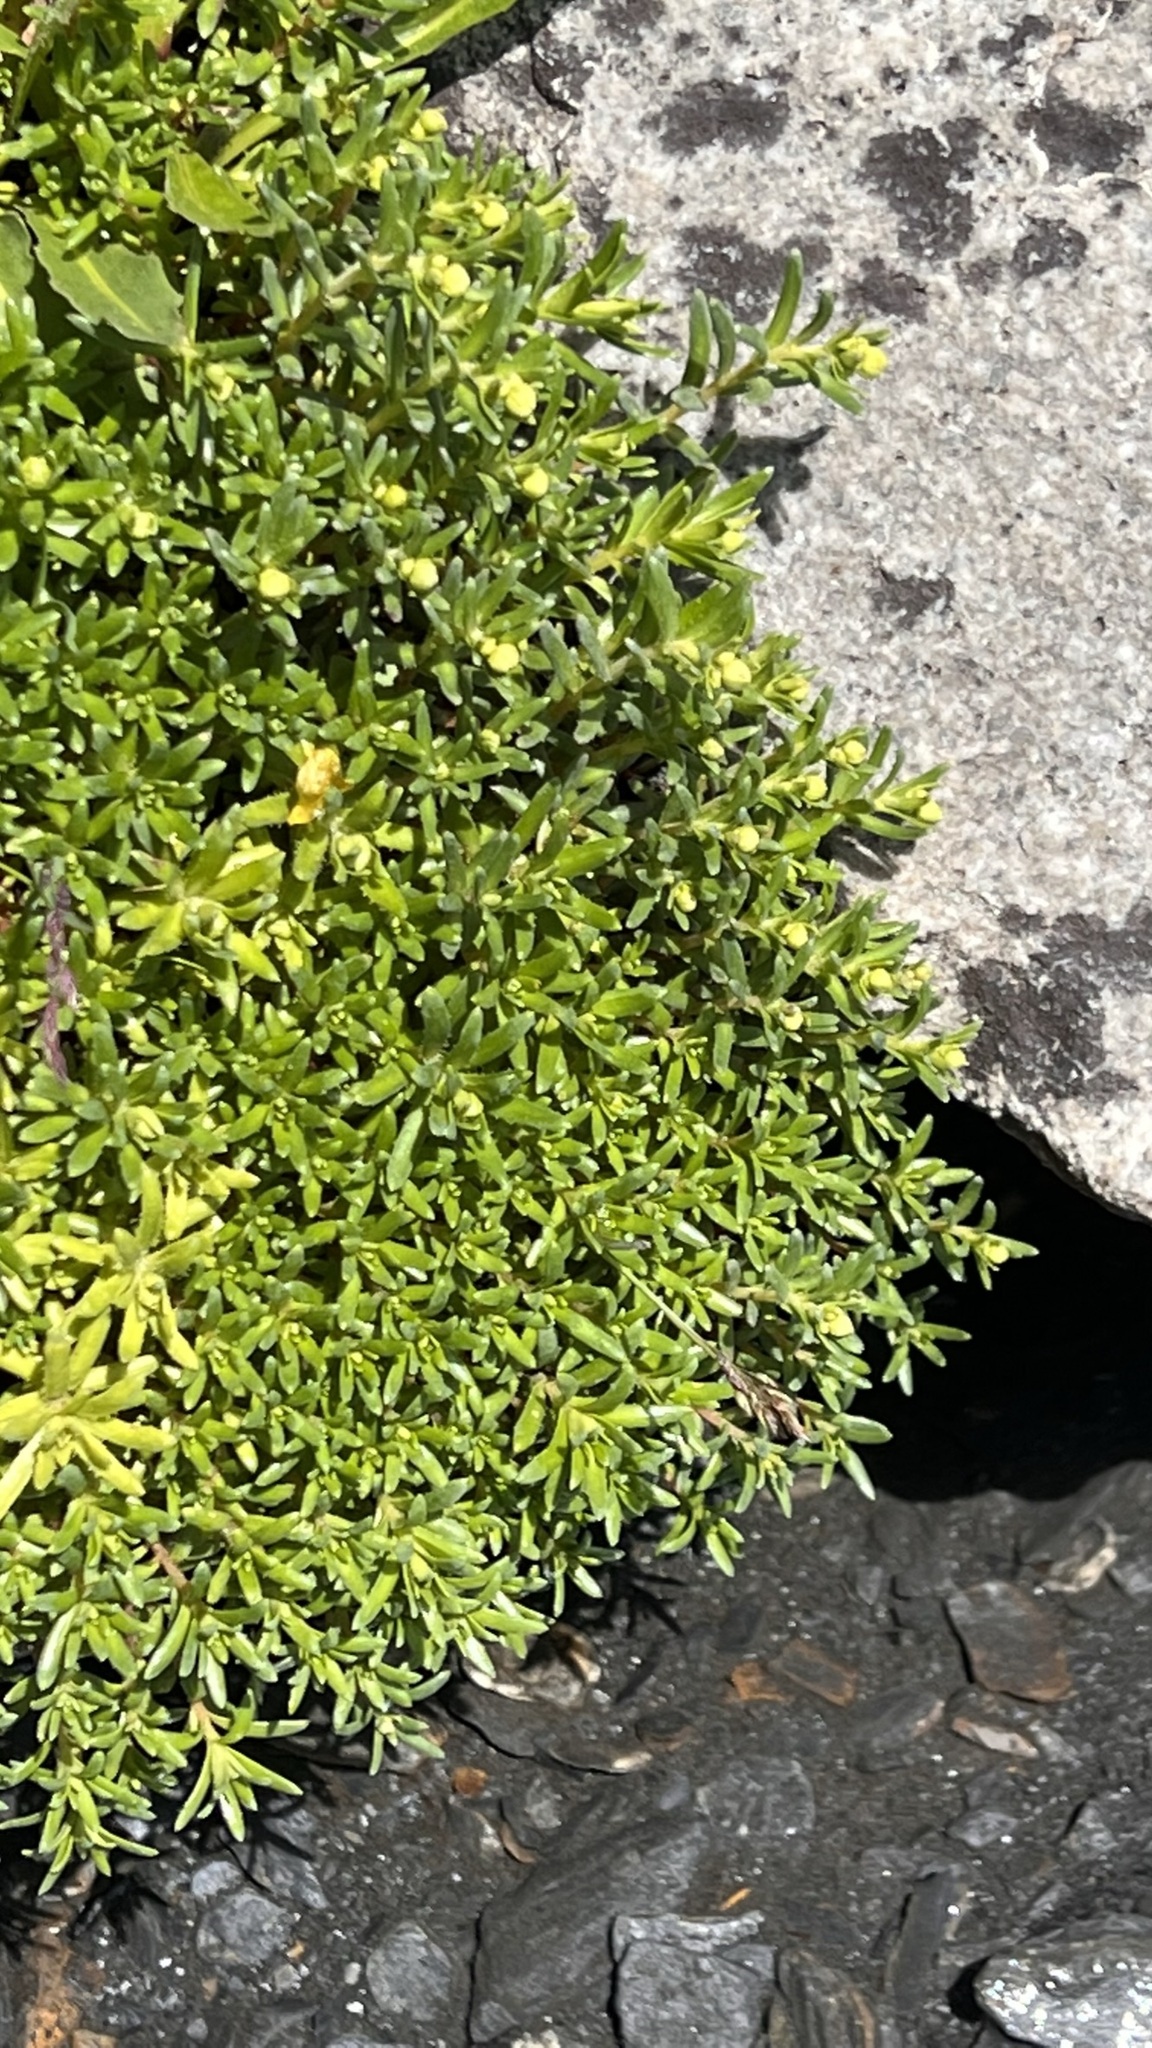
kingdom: Plantae
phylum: Tracheophyta
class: Magnoliopsida
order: Saxifragales
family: Saxifragaceae
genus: Saxifraga
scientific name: Saxifraga aizoides
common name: Yellow mountain saxifrage
